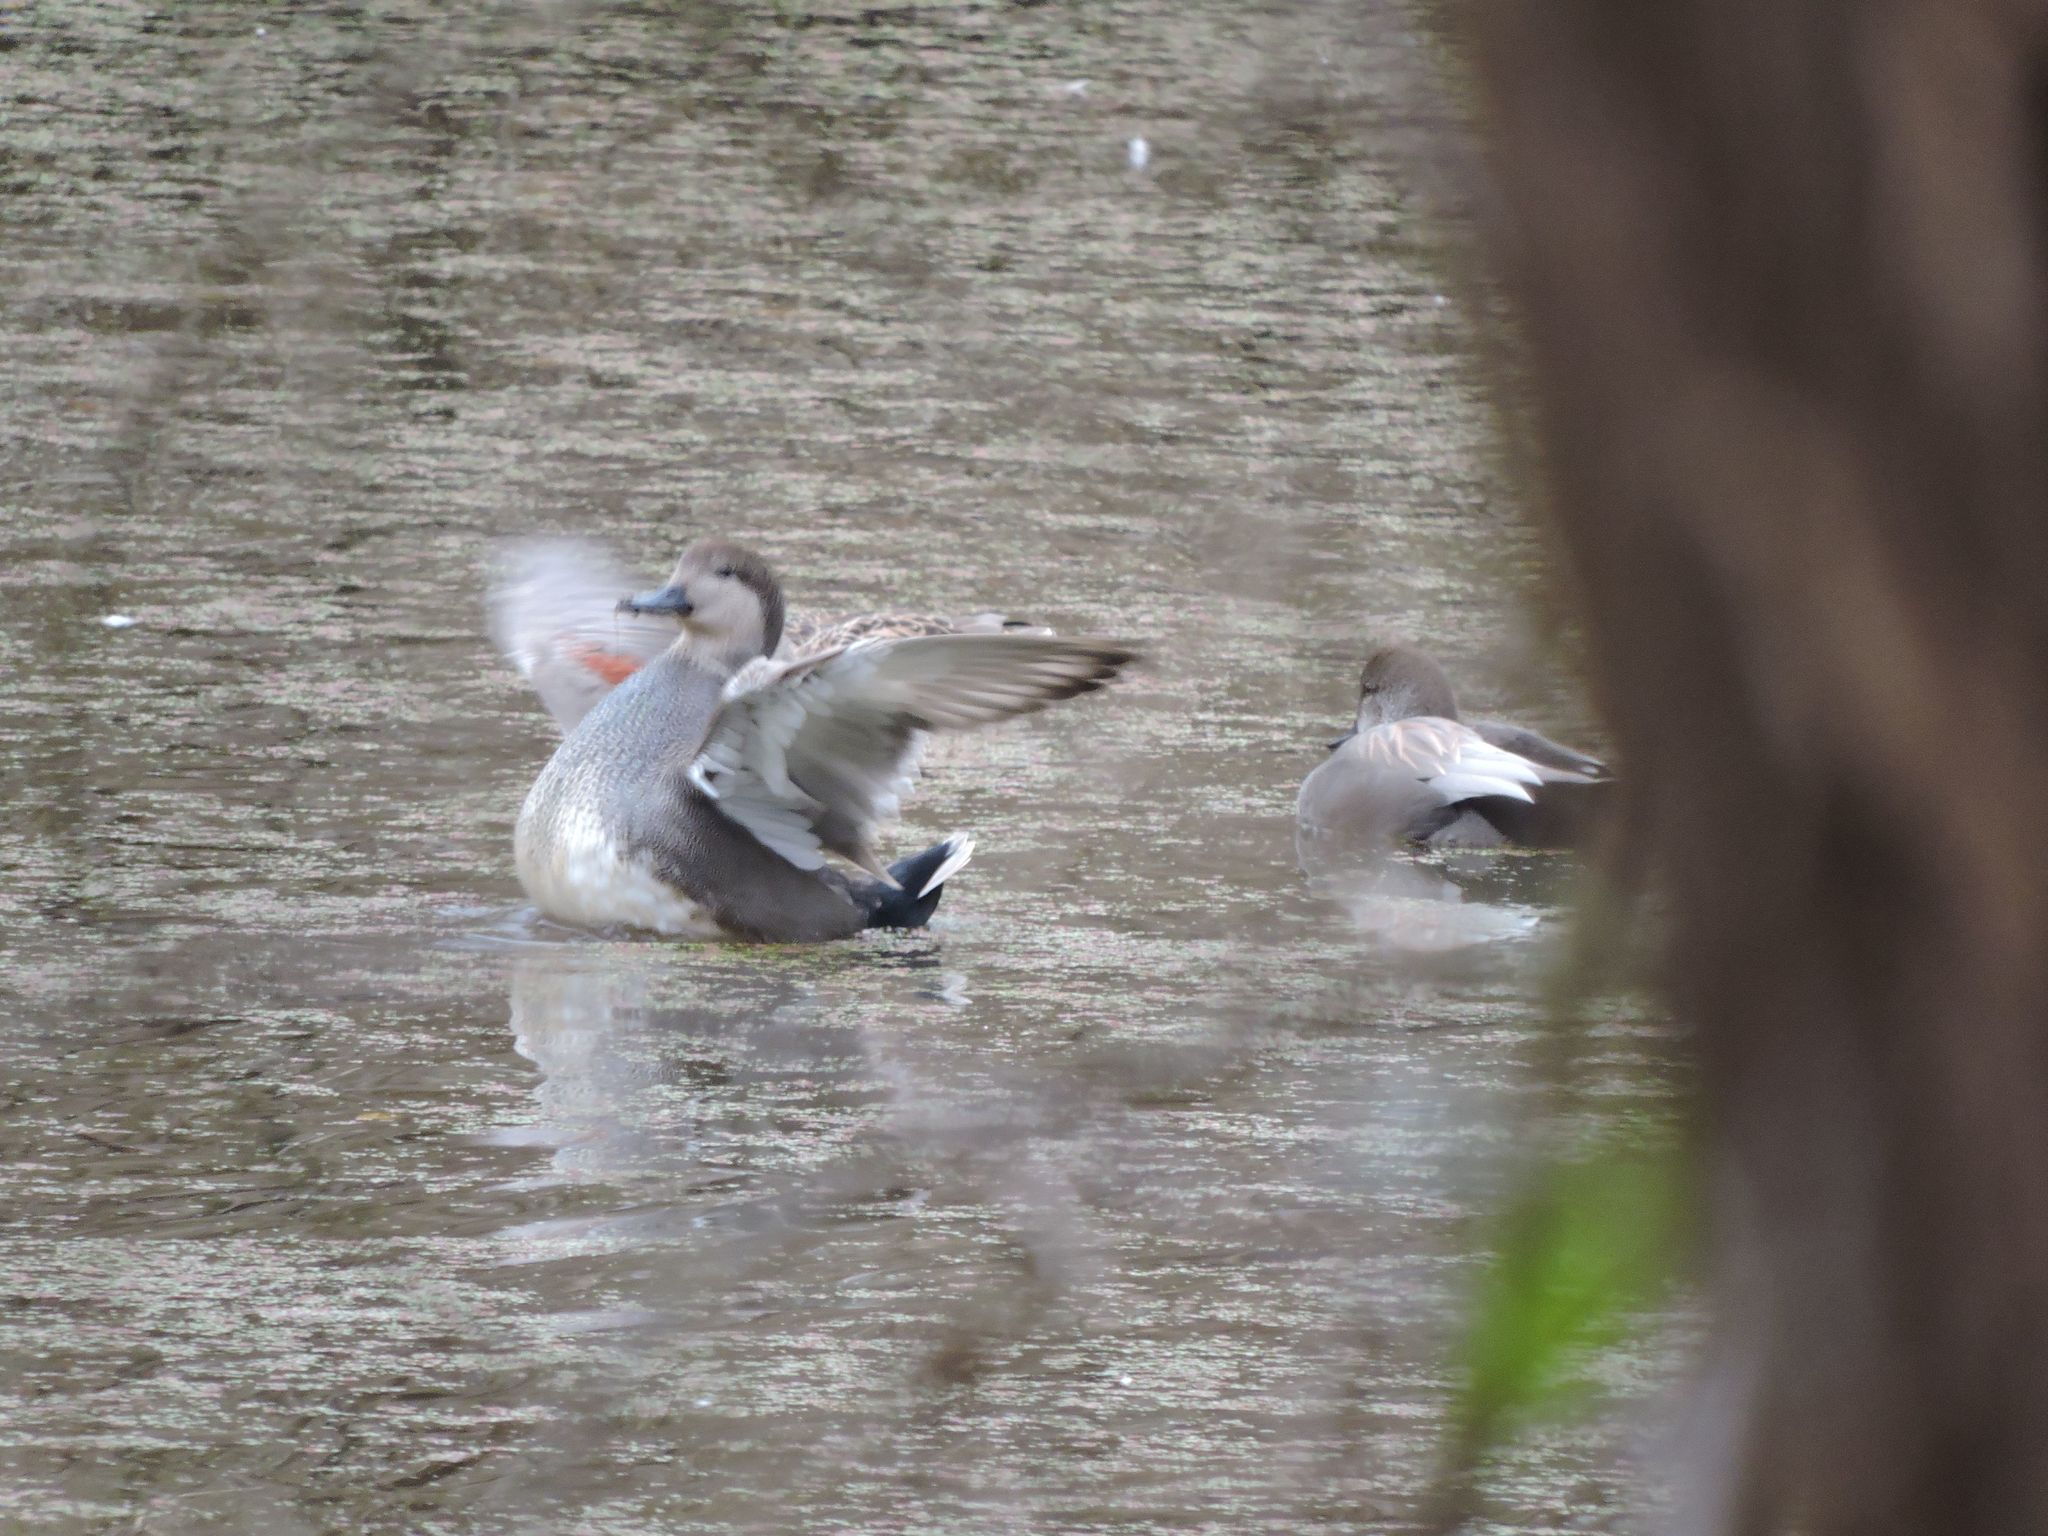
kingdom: Animalia
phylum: Chordata
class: Aves
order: Anseriformes
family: Anatidae
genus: Mareca
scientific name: Mareca strepera
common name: Gadwall
